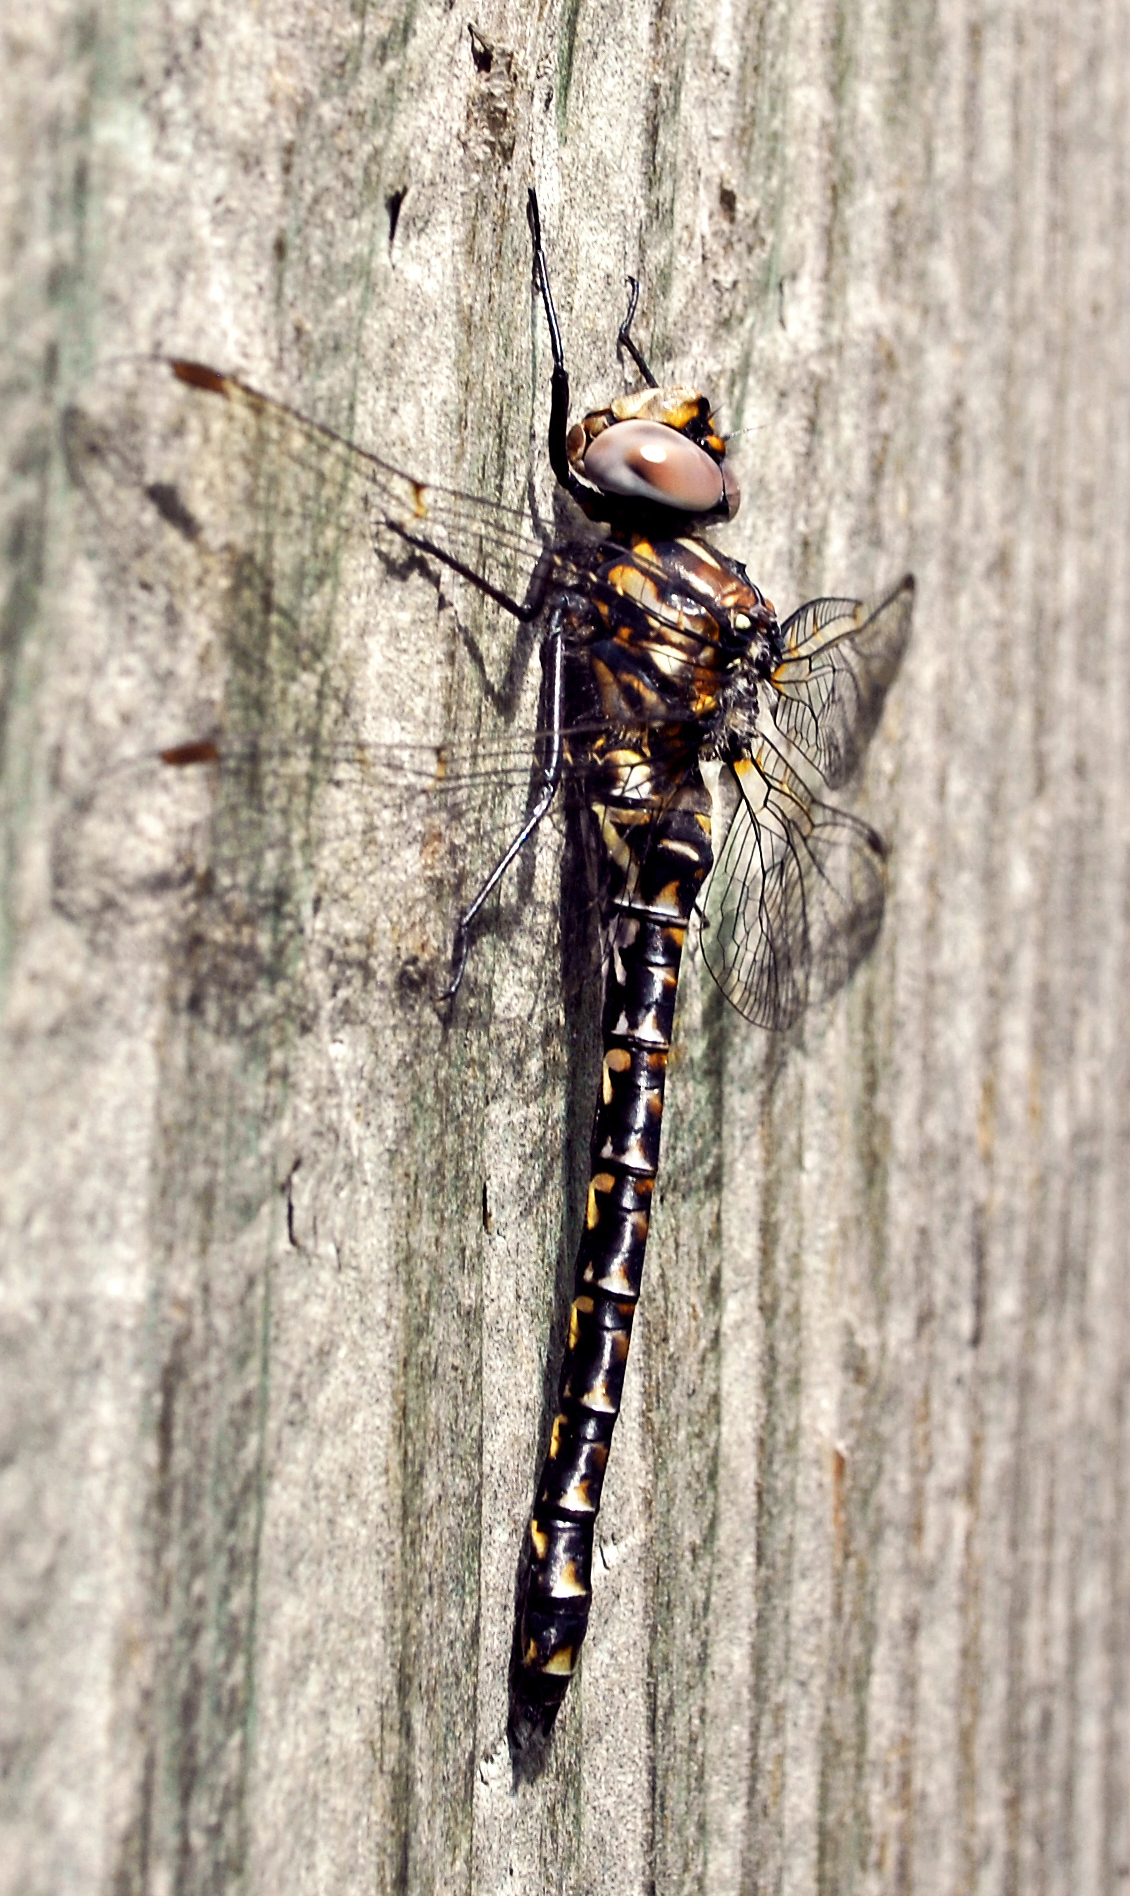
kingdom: Animalia
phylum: Arthropoda
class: Insecta
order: Odonata
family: Aeshnidae
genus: Gomphaeschna
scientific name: Gomphaeschna furcillata
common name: Harlequin darner
